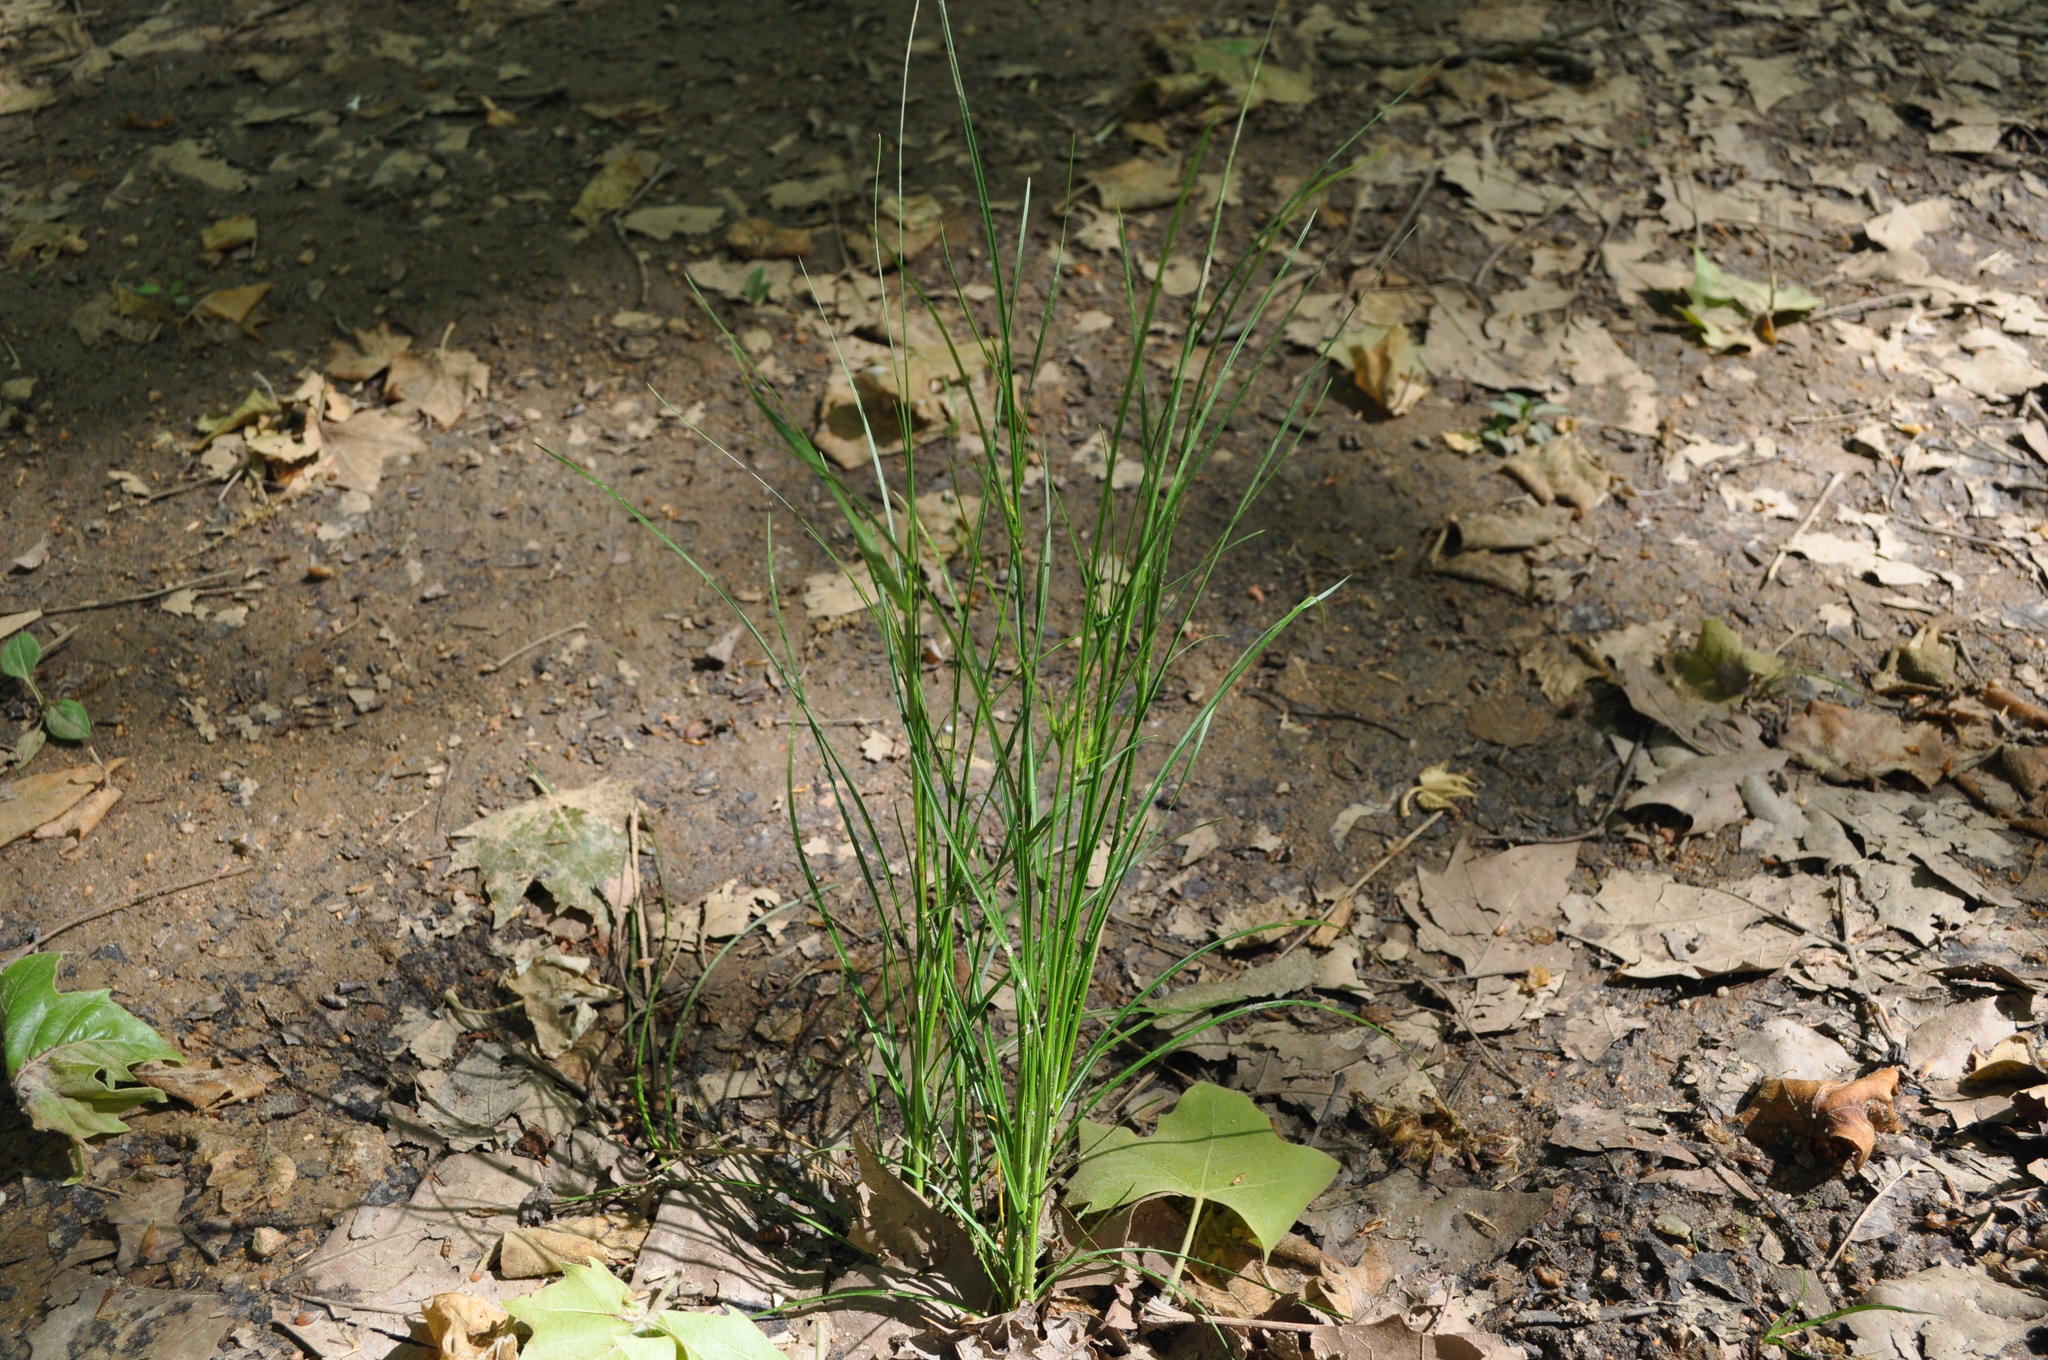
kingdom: Plantae
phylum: Tracheophyta
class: Liliopsida
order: Poales
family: Juncaceae
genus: Juncus
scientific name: Juncus tenuis
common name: Slender rush
